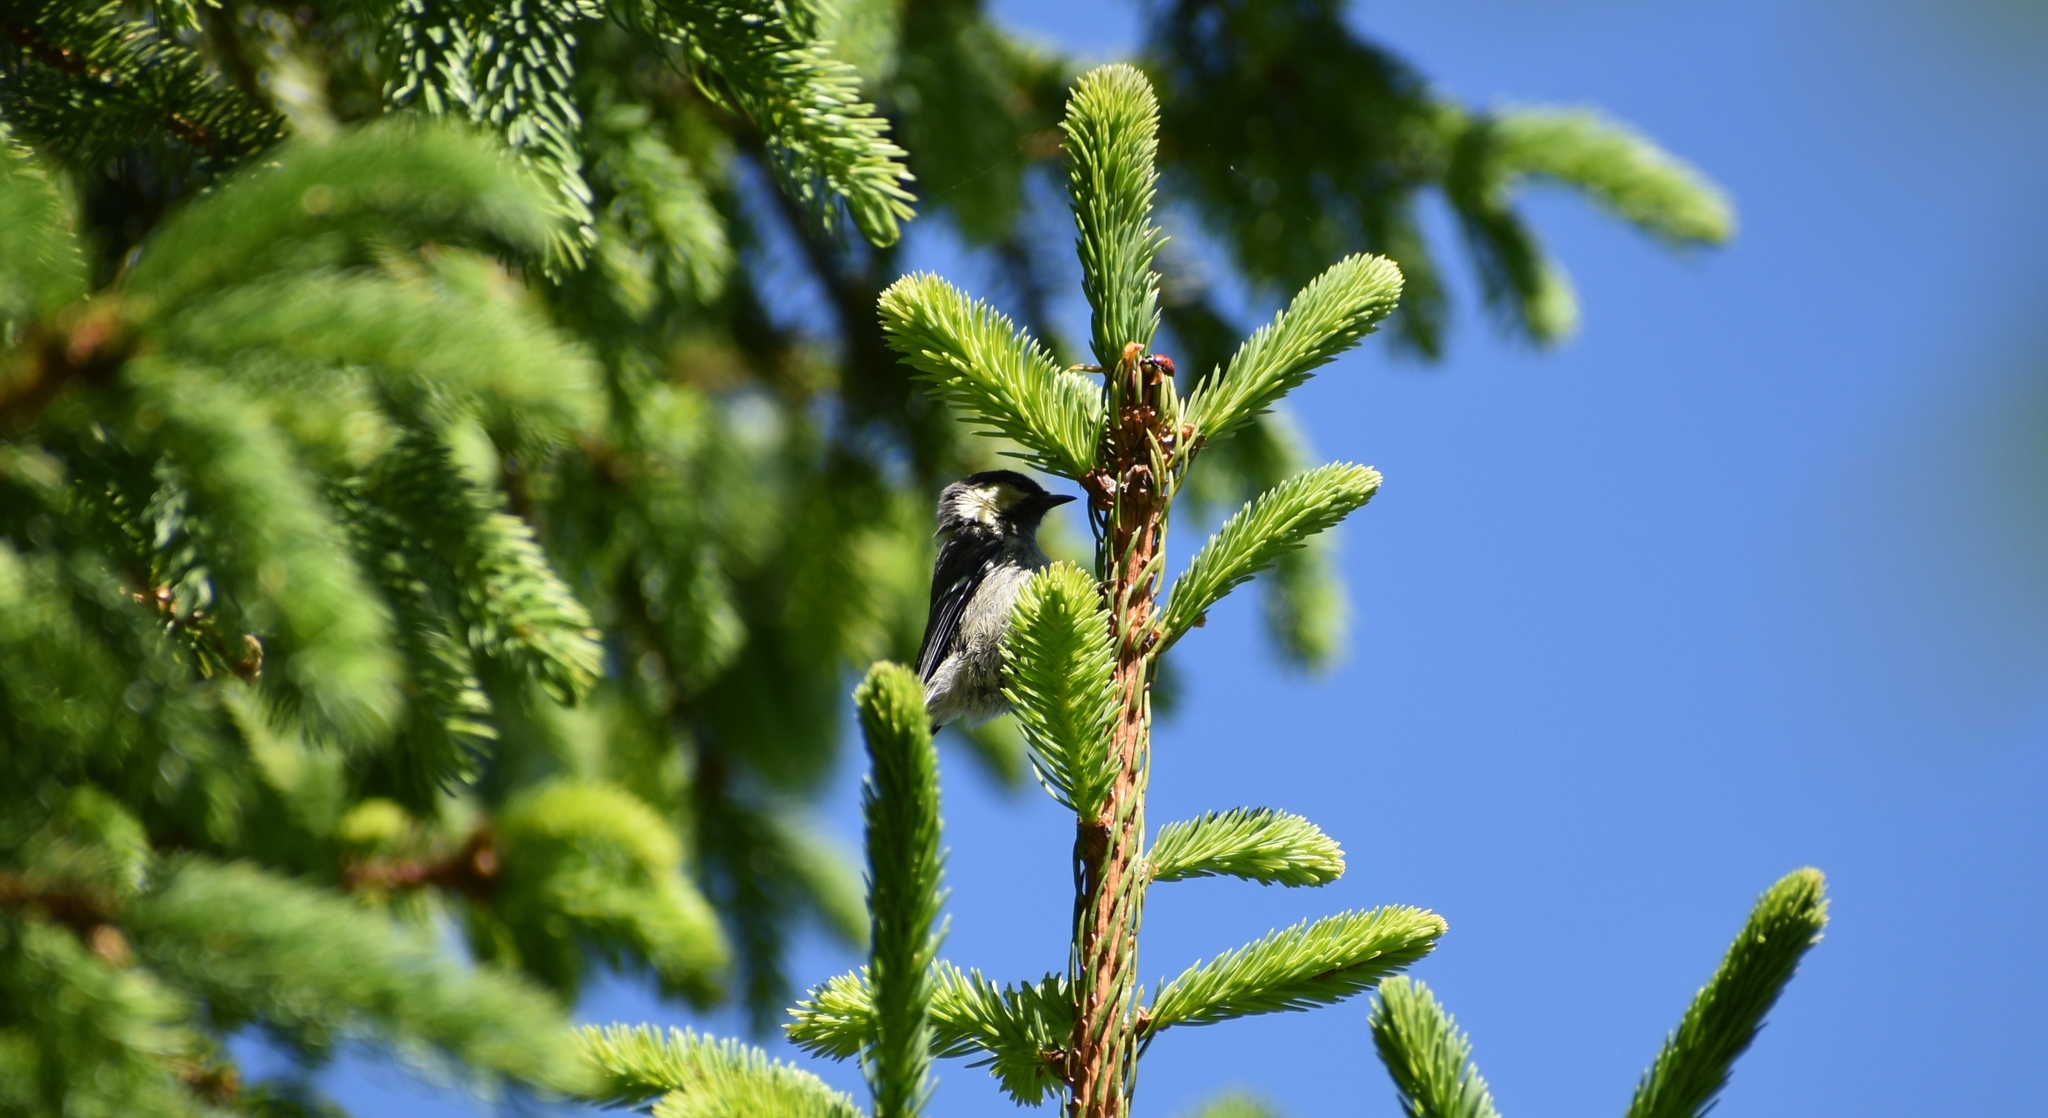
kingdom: Animalia
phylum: Chordata
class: Aves
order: Passeriformes
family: Paridae
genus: Periparus
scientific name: Periparus ater
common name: Coal tit
